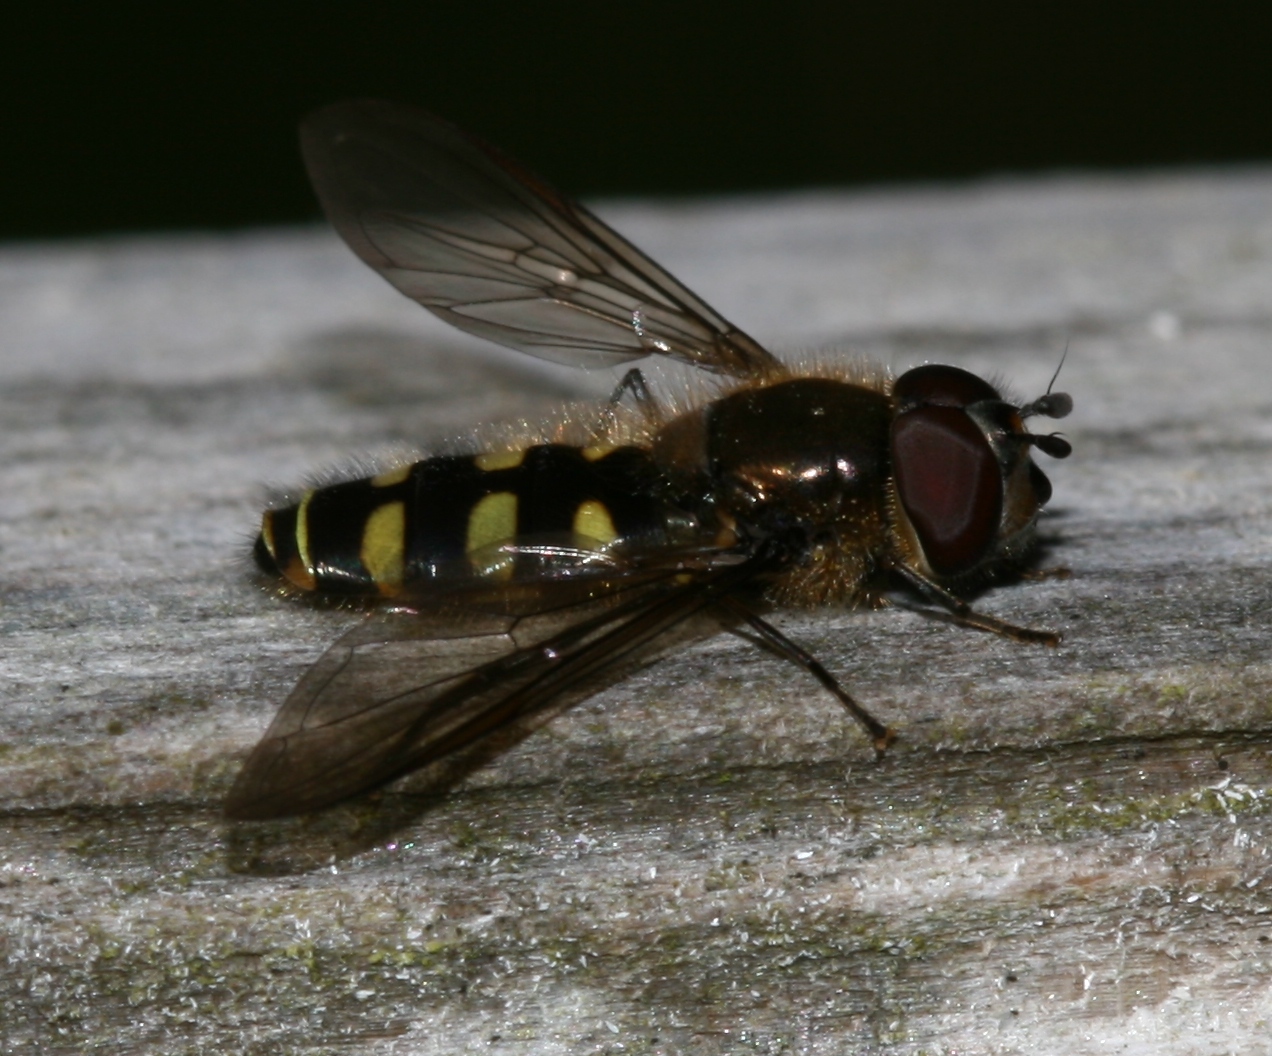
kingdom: Animalia
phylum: Arthropoda
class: Insecta
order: Diptera
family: Syrphidae
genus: Melangyna
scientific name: Melangyna lasiophthalma
